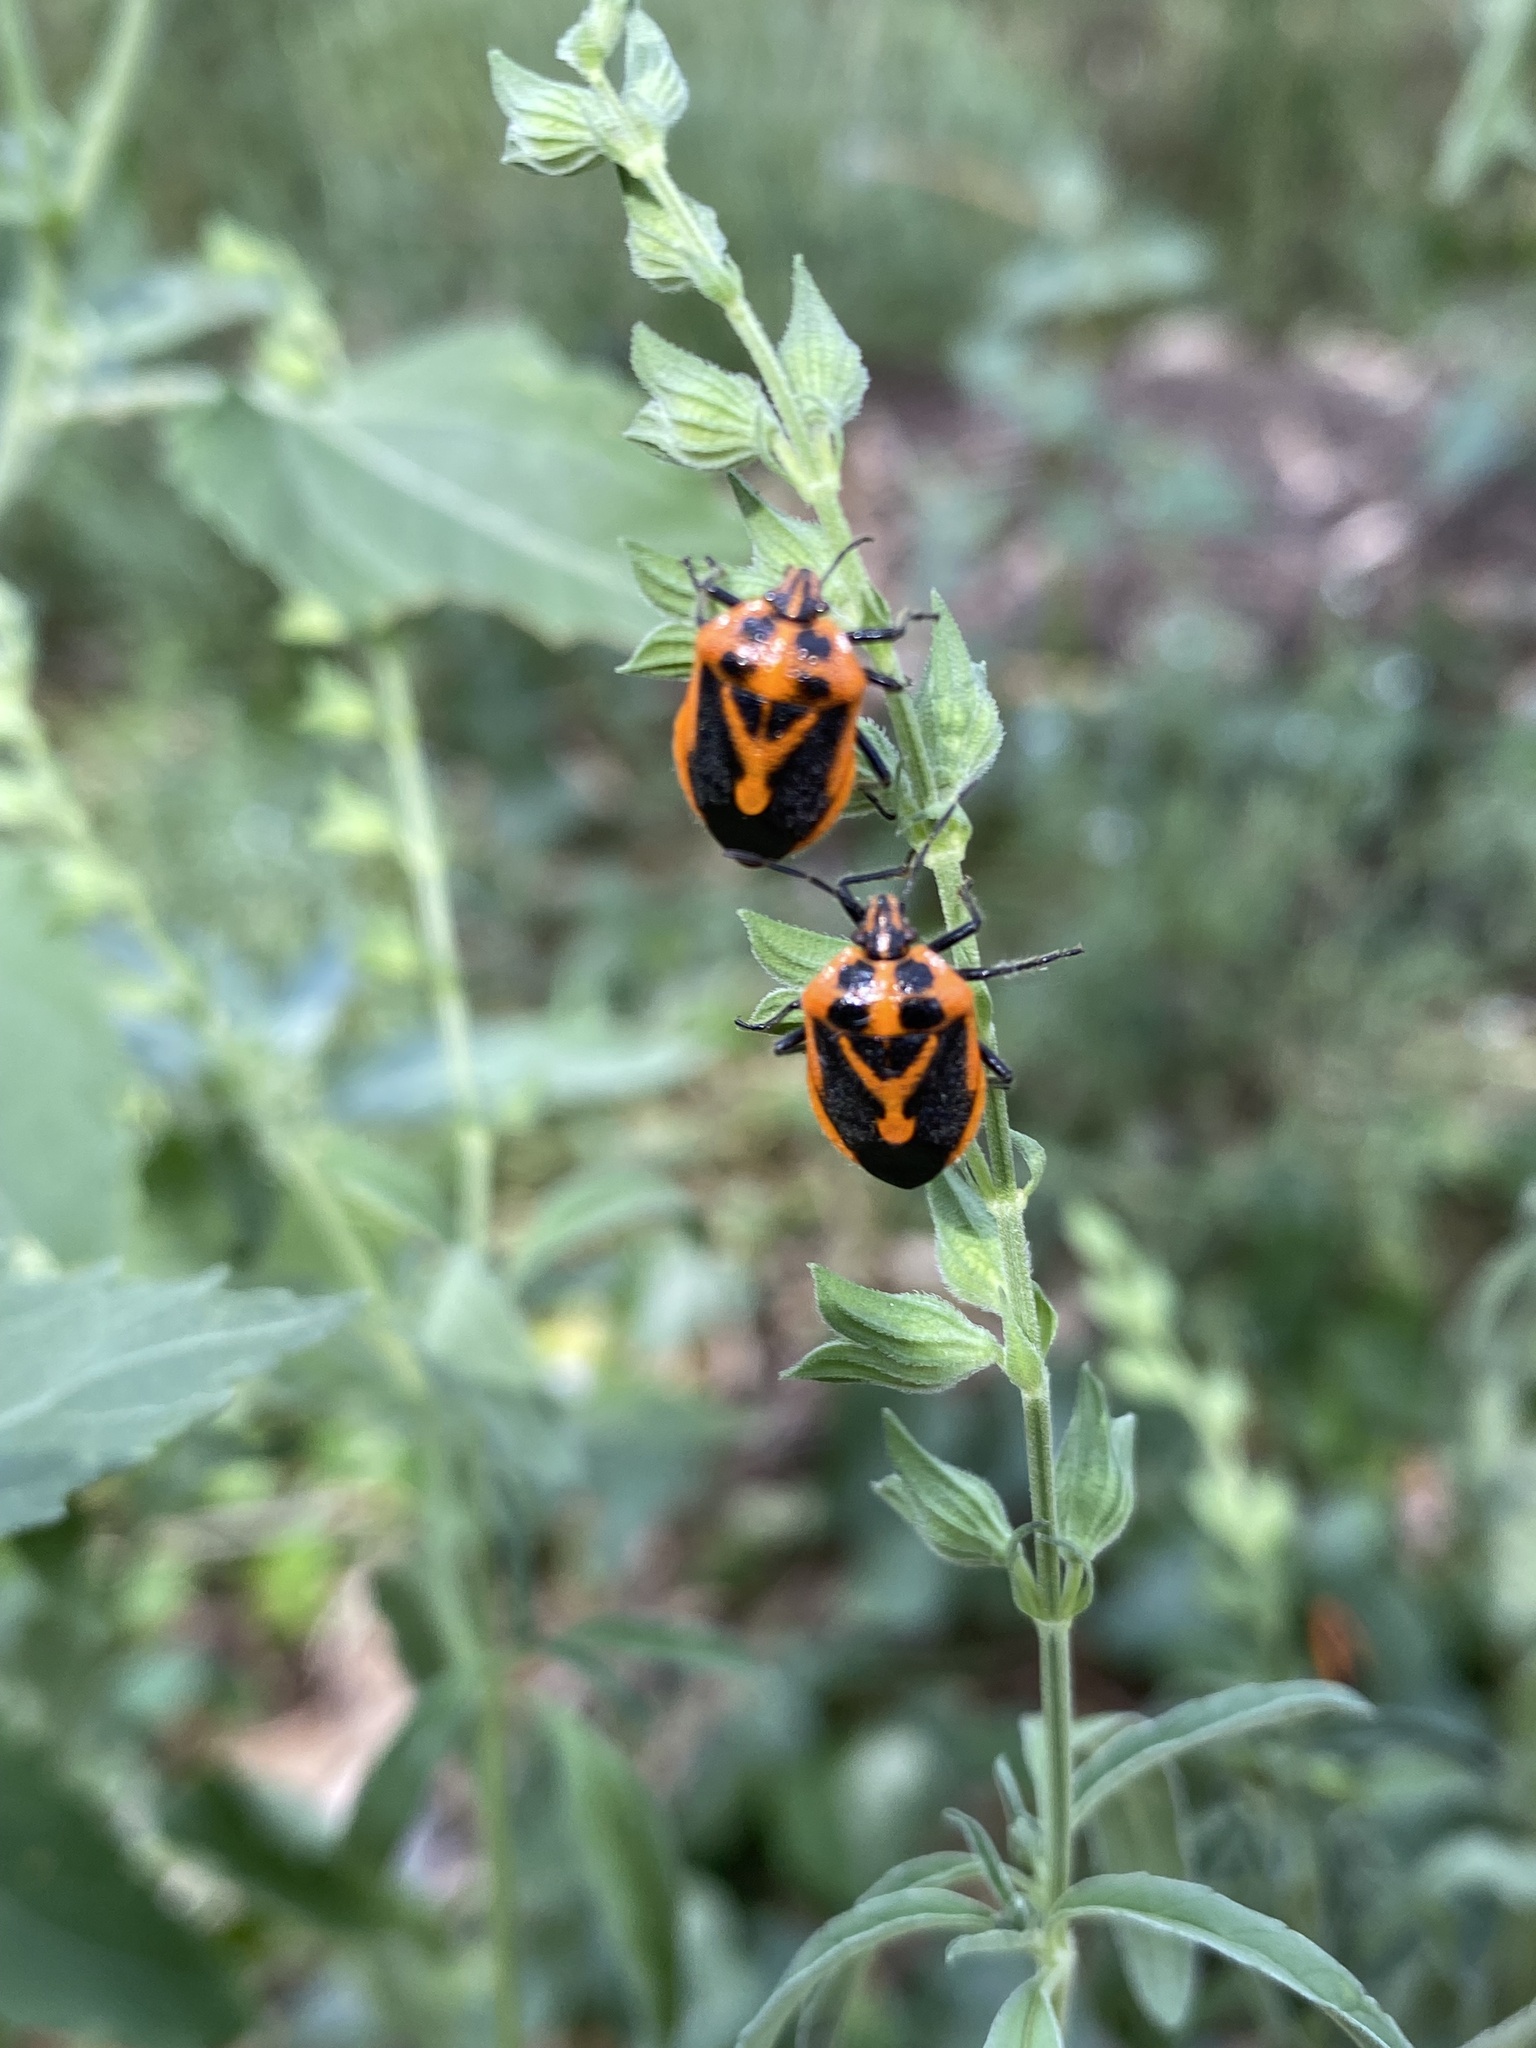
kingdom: Animalia
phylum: Arthropoda
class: Insecta
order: Hemiptera
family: Pentatomidae
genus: Agonoscelis
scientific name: Agonoscelis rutila
